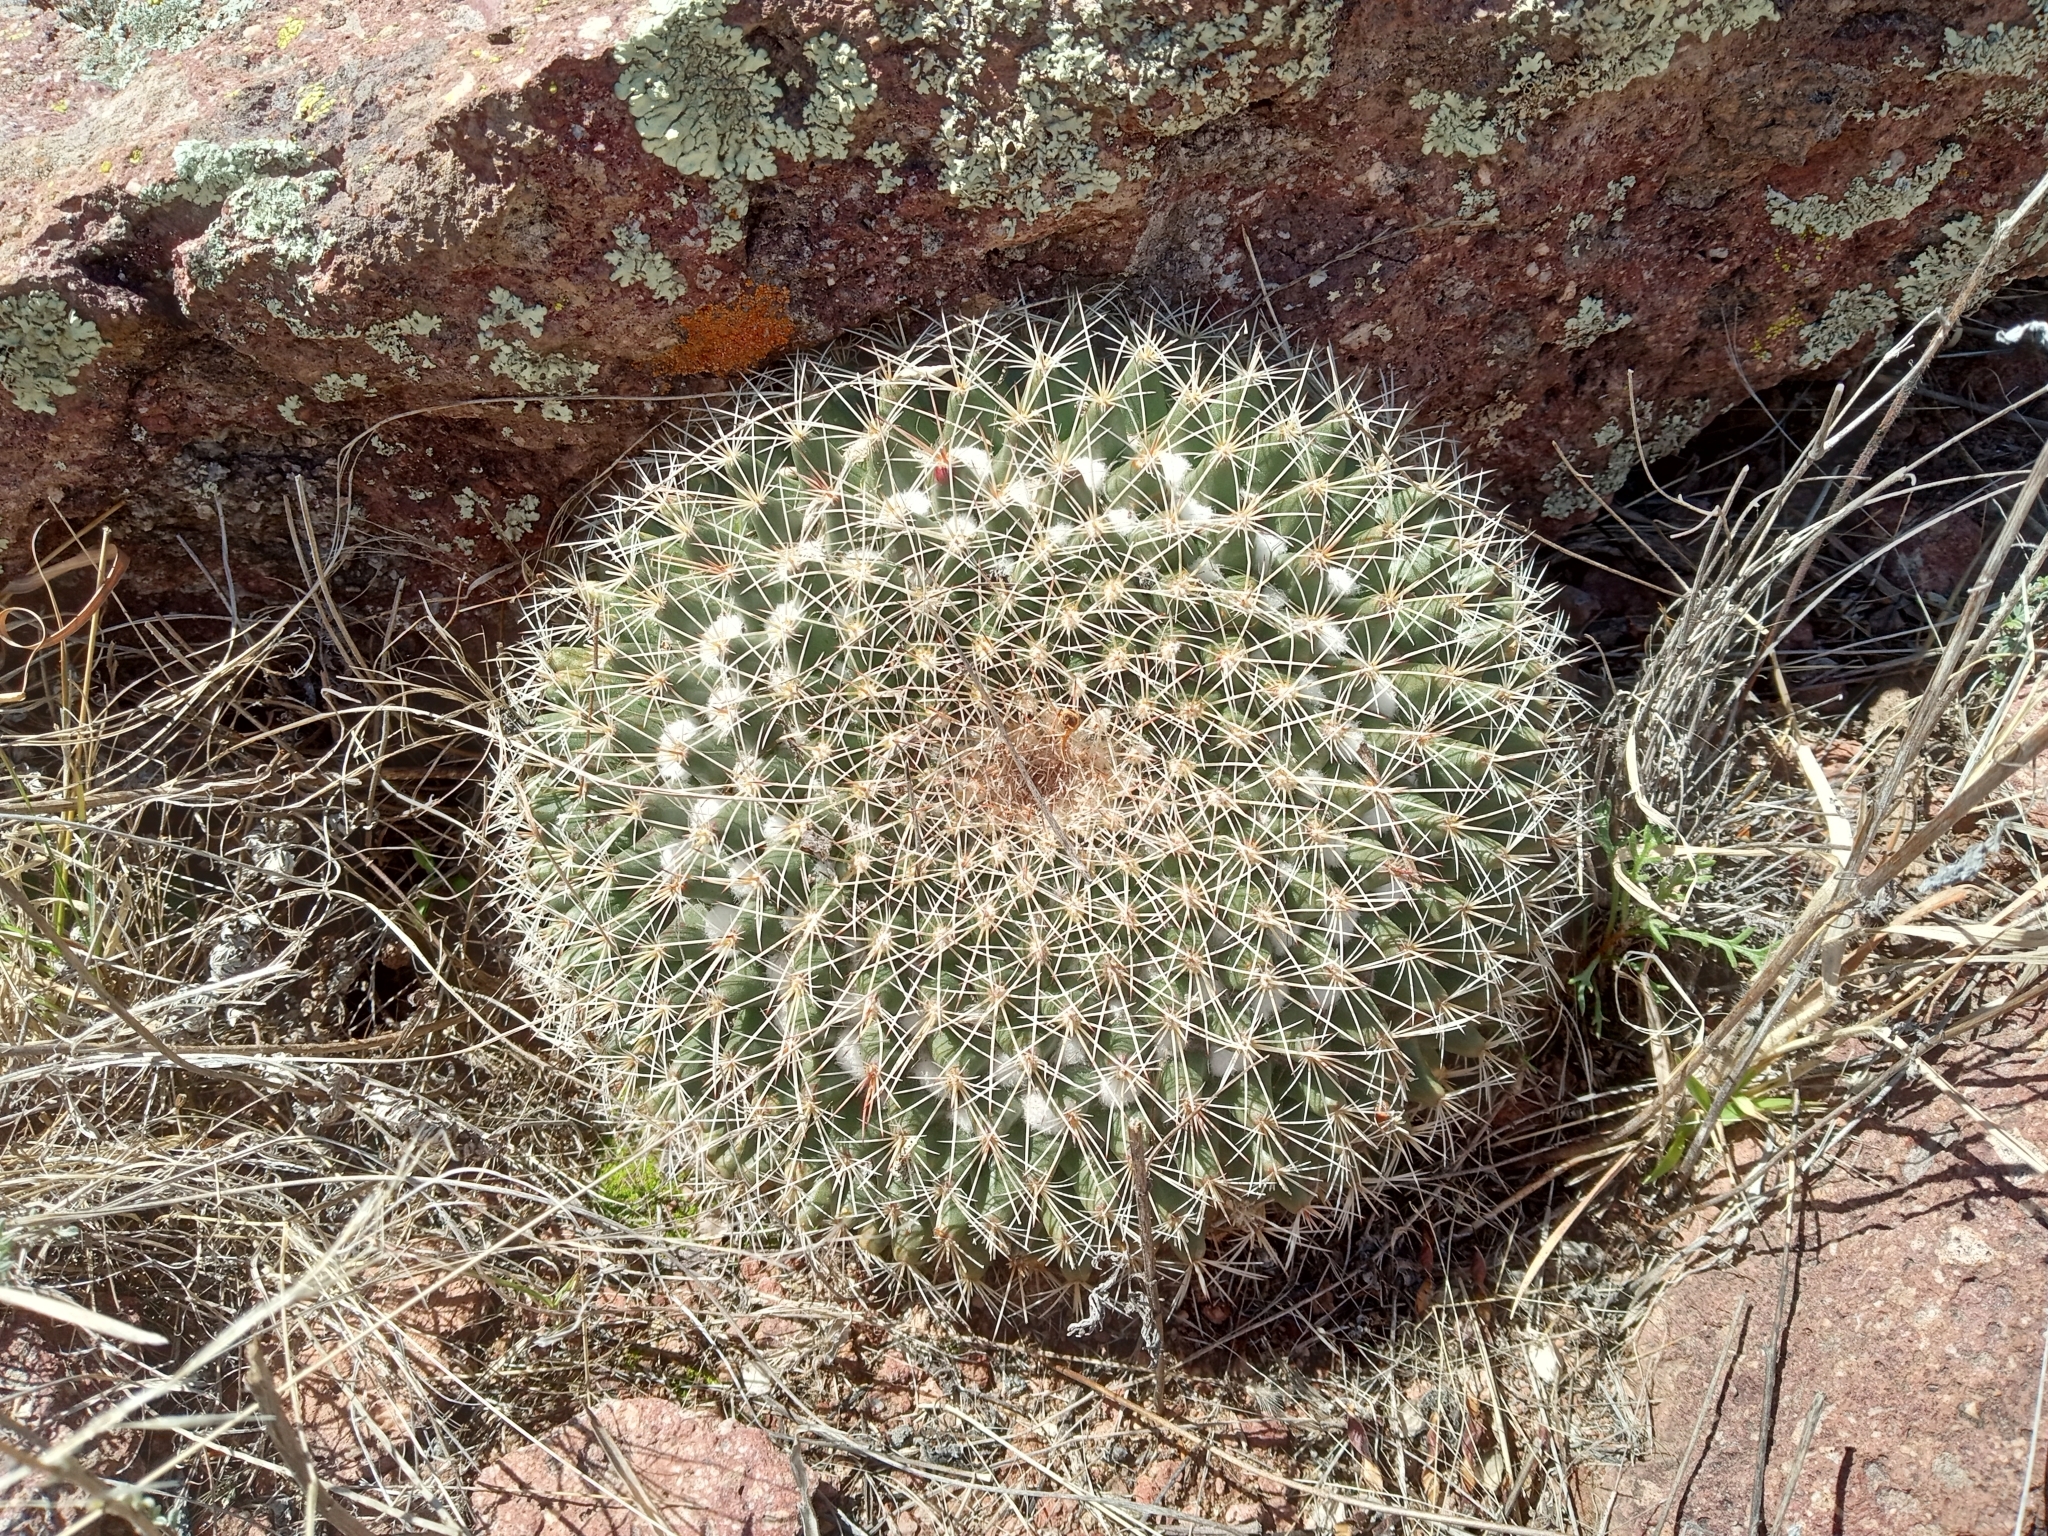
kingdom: Plantae
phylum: Tracheophyta
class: Magnoliopsida
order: Caryophyllales
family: Cactaceae
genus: Mammillaria
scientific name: Mammillaria heyderi
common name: Little nipple cactus
